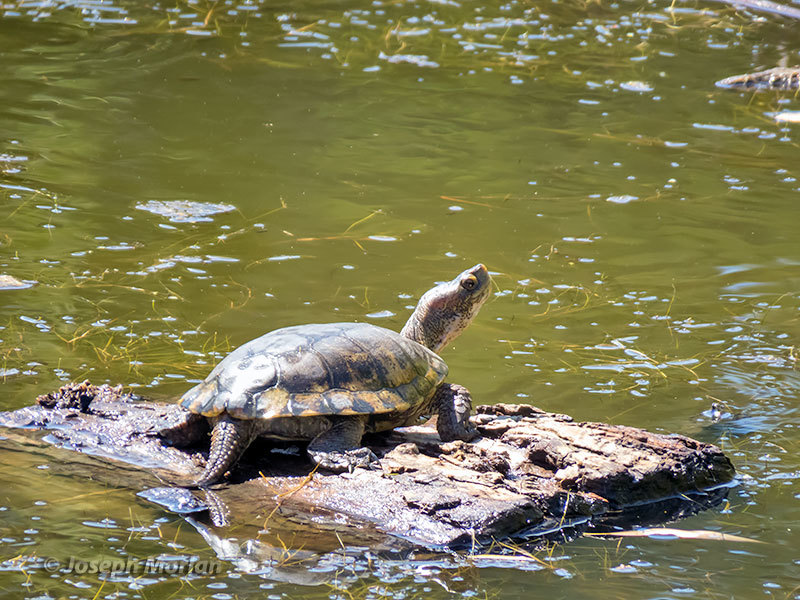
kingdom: Animalia
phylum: Chordata
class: Testudines
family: Emydidae
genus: Actinemys
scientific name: Actinemys marmorata
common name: Western pond turtle
